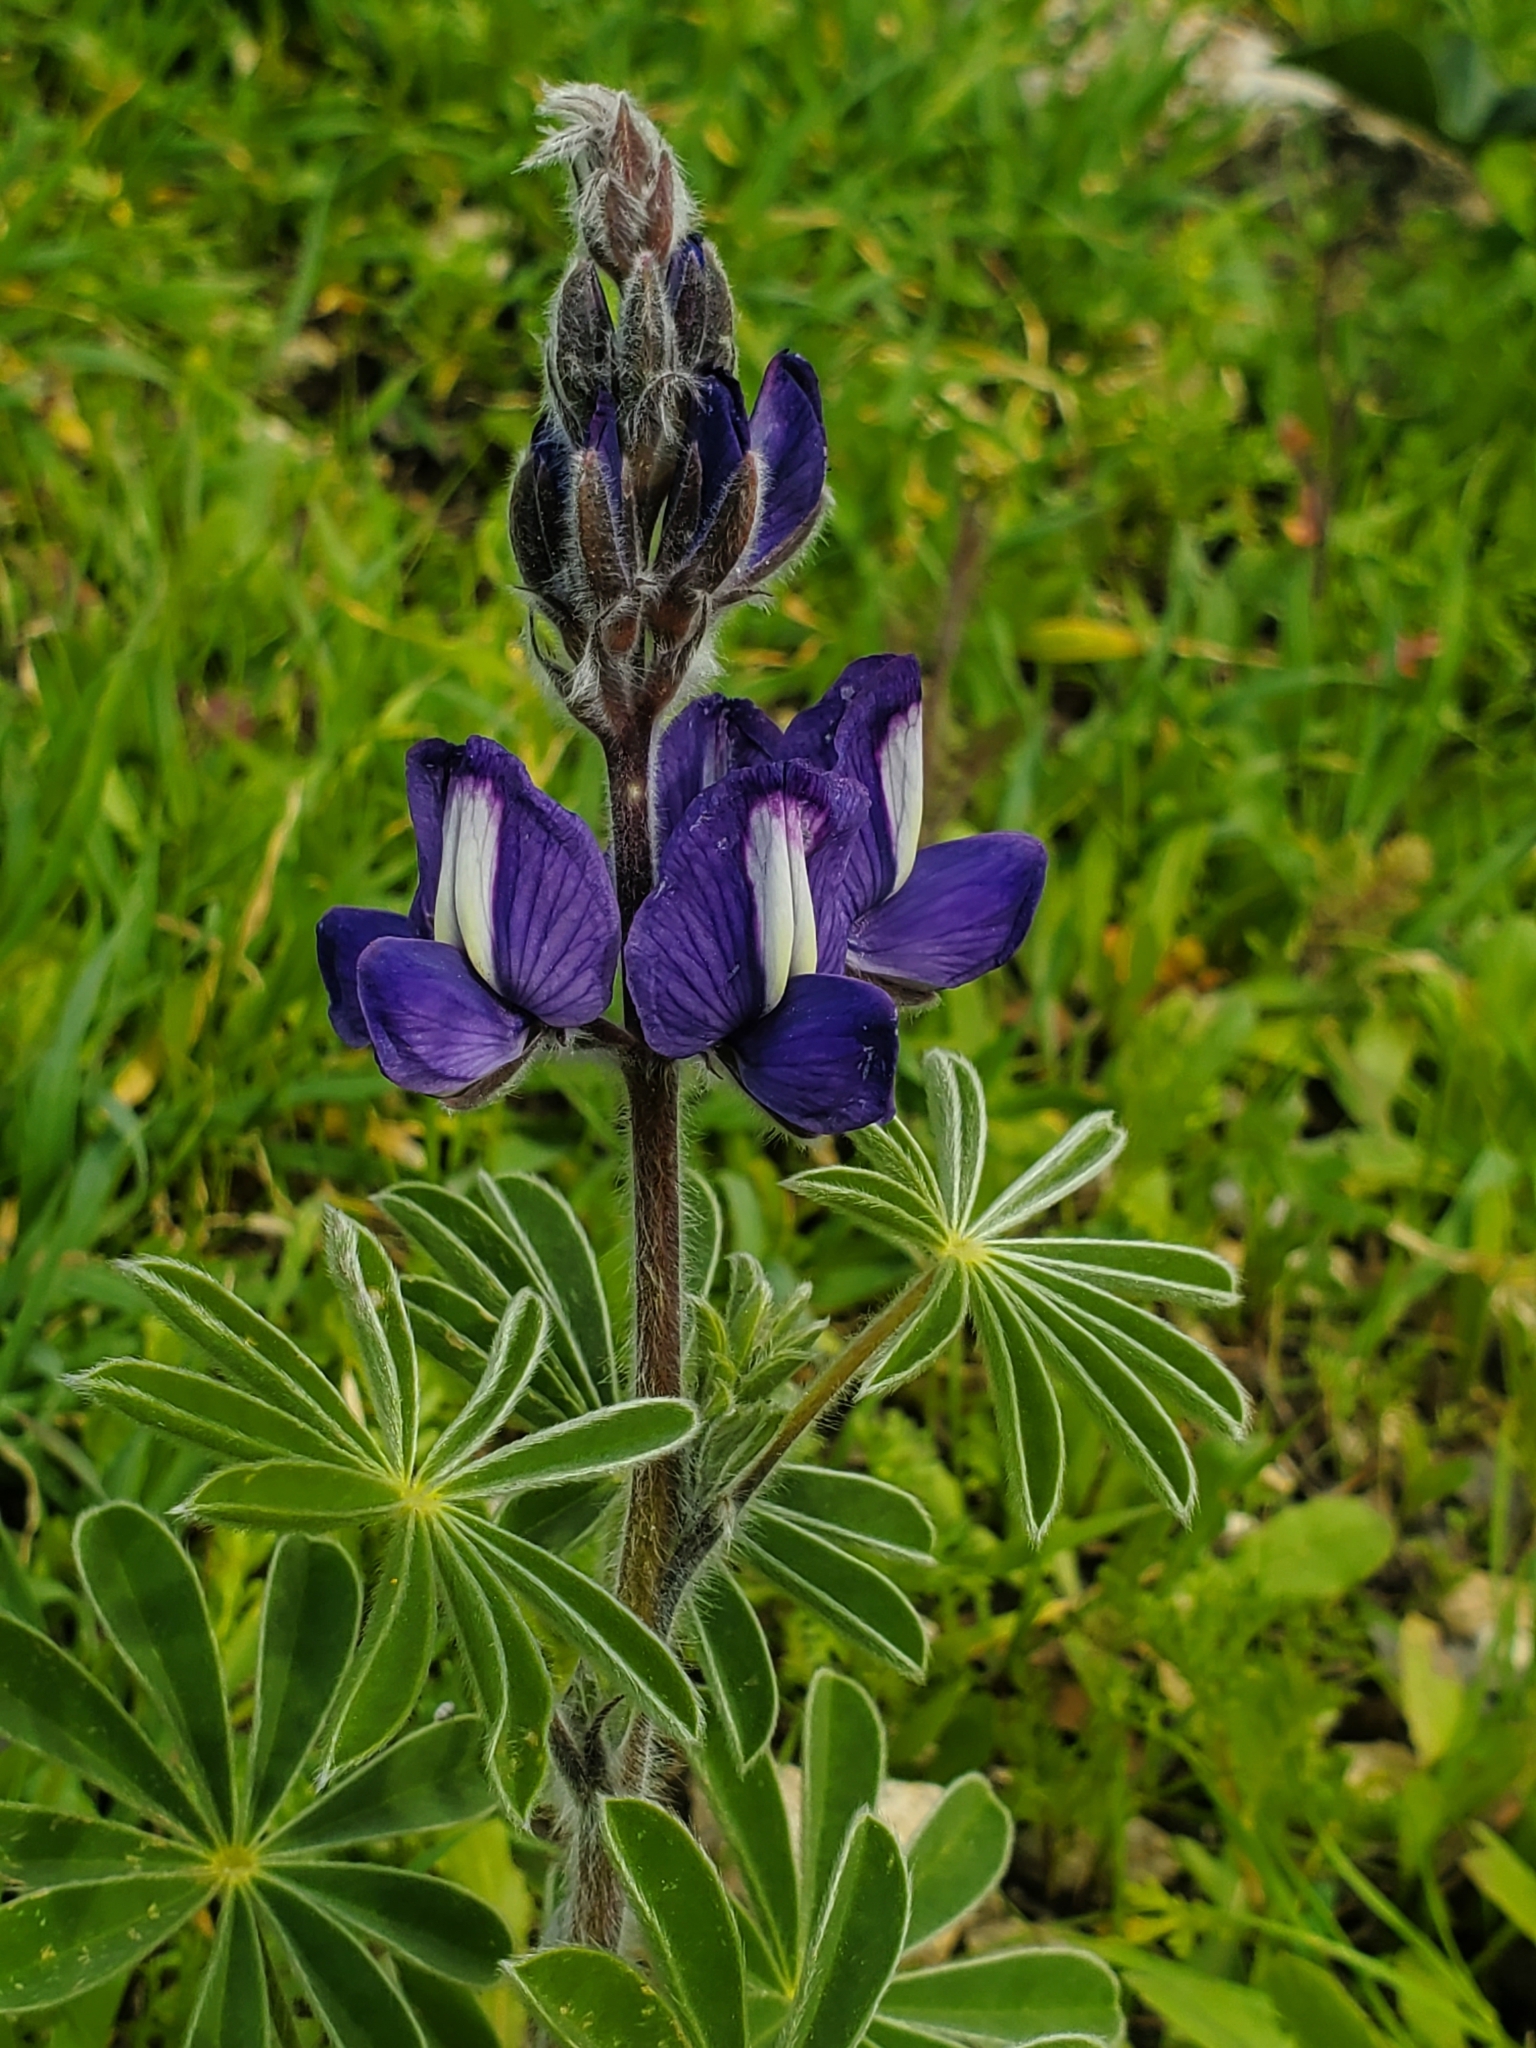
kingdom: Plantae
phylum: Tracheophyta
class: Magnoliopsida
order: Fabales
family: Fabaceae
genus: Lupinus
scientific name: Lupinus pilosus
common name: Blue lupine
